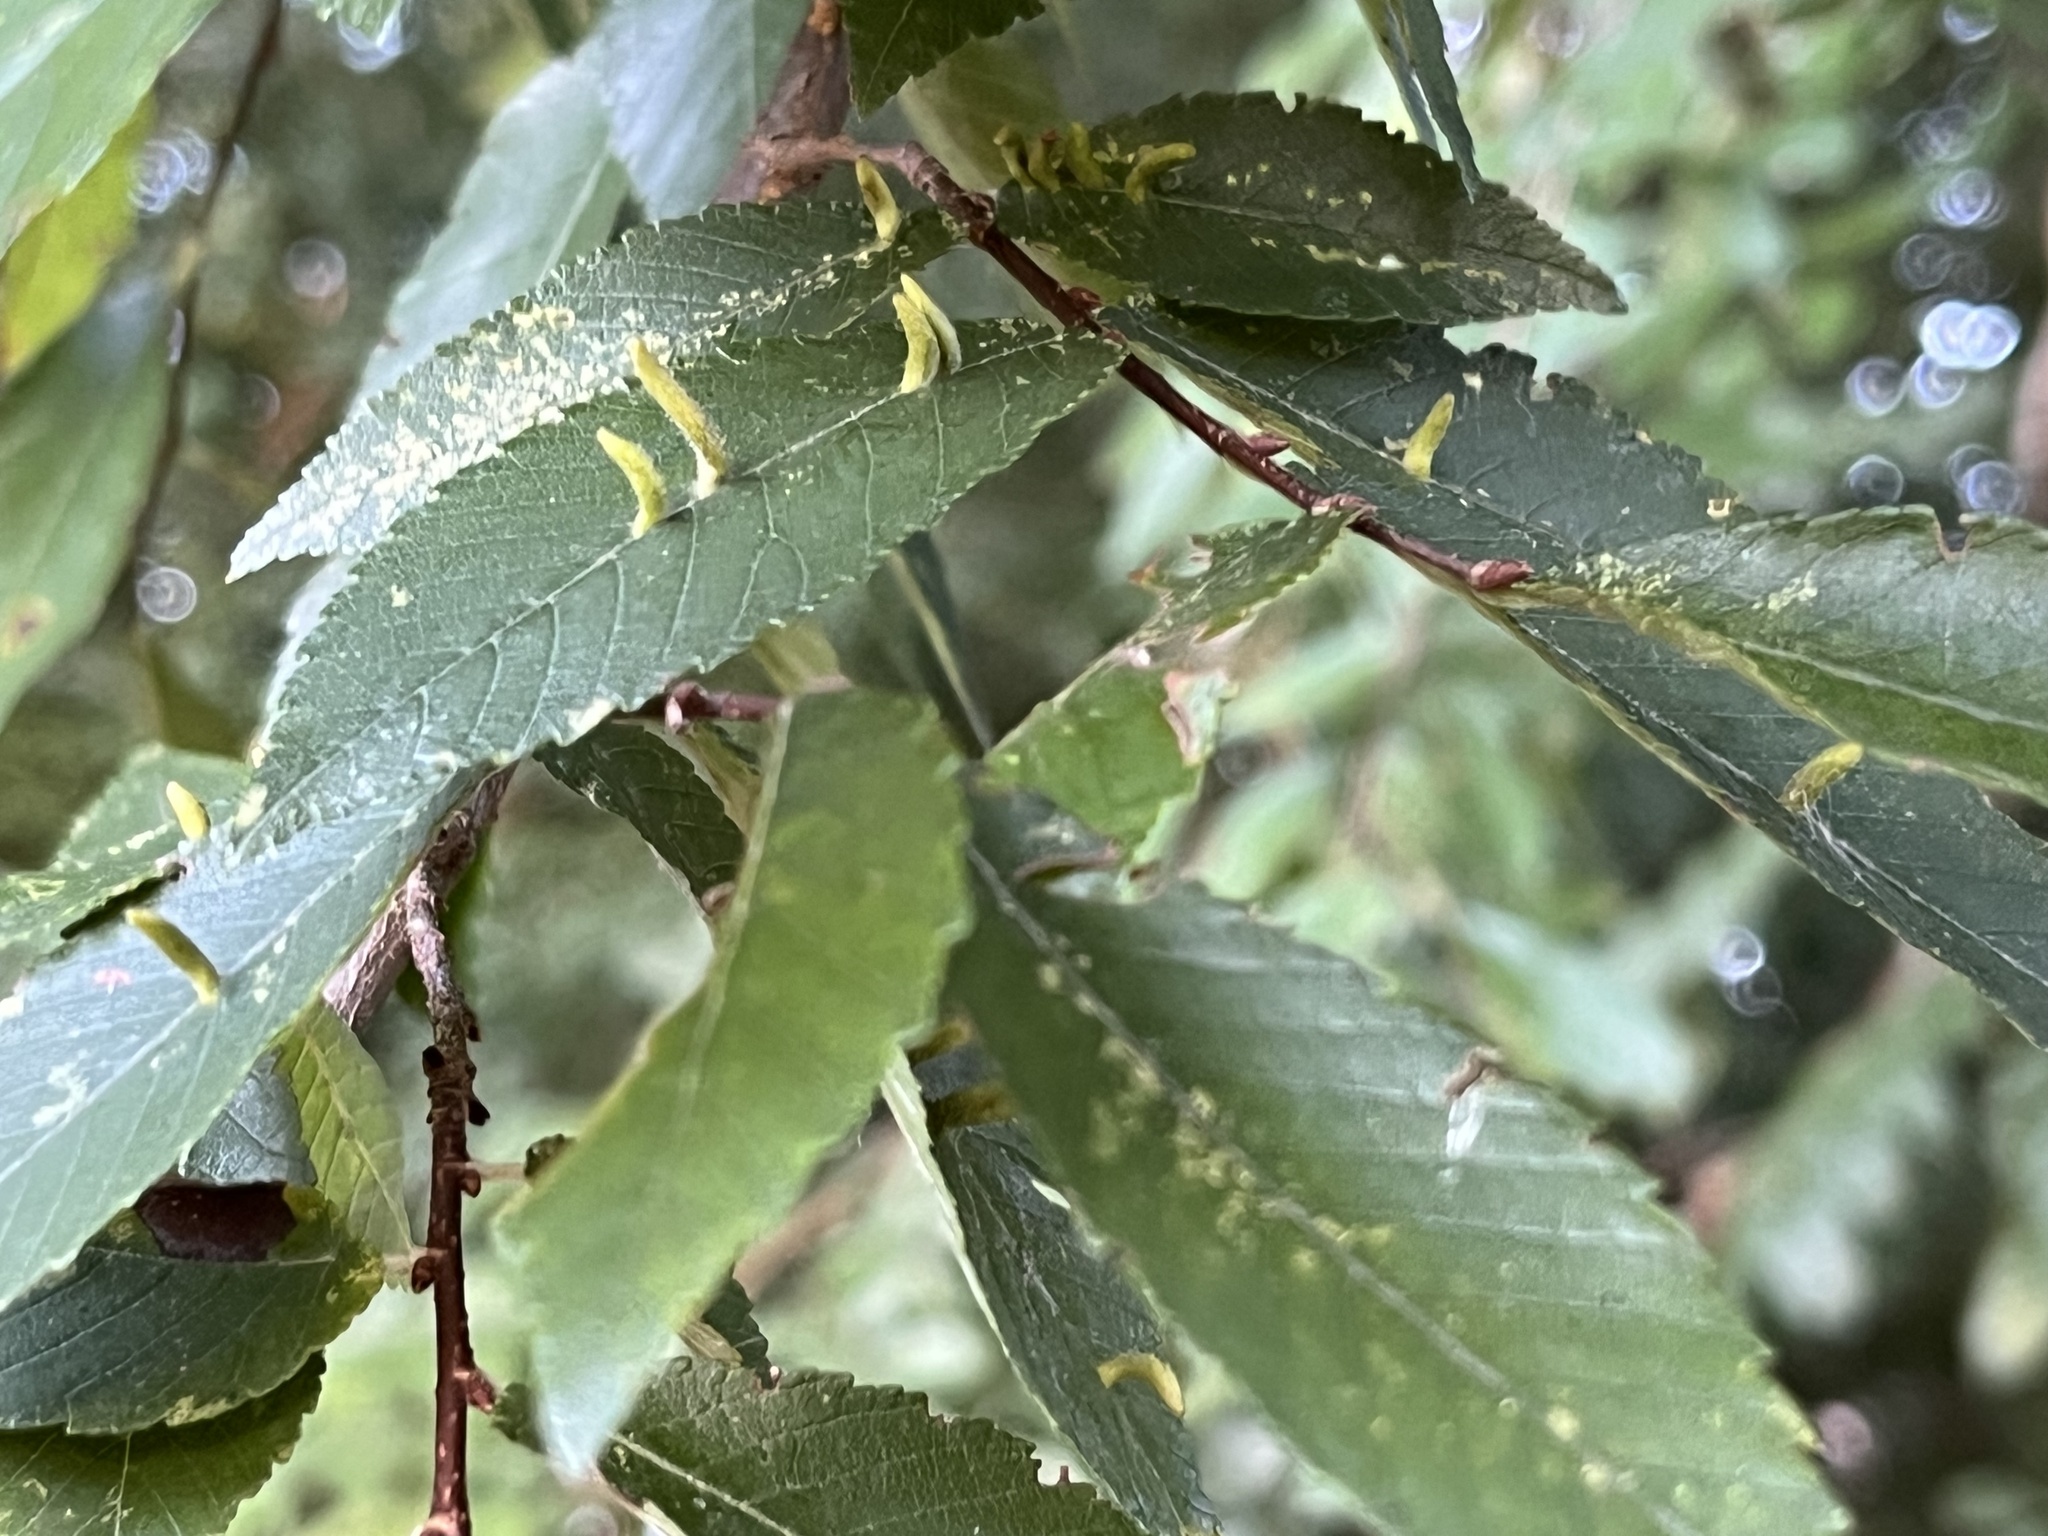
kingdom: Animalia
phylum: Arthropoda
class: Arachnida
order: Trombidiformes
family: Eriophyidae
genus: Aceria
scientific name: Aceria
